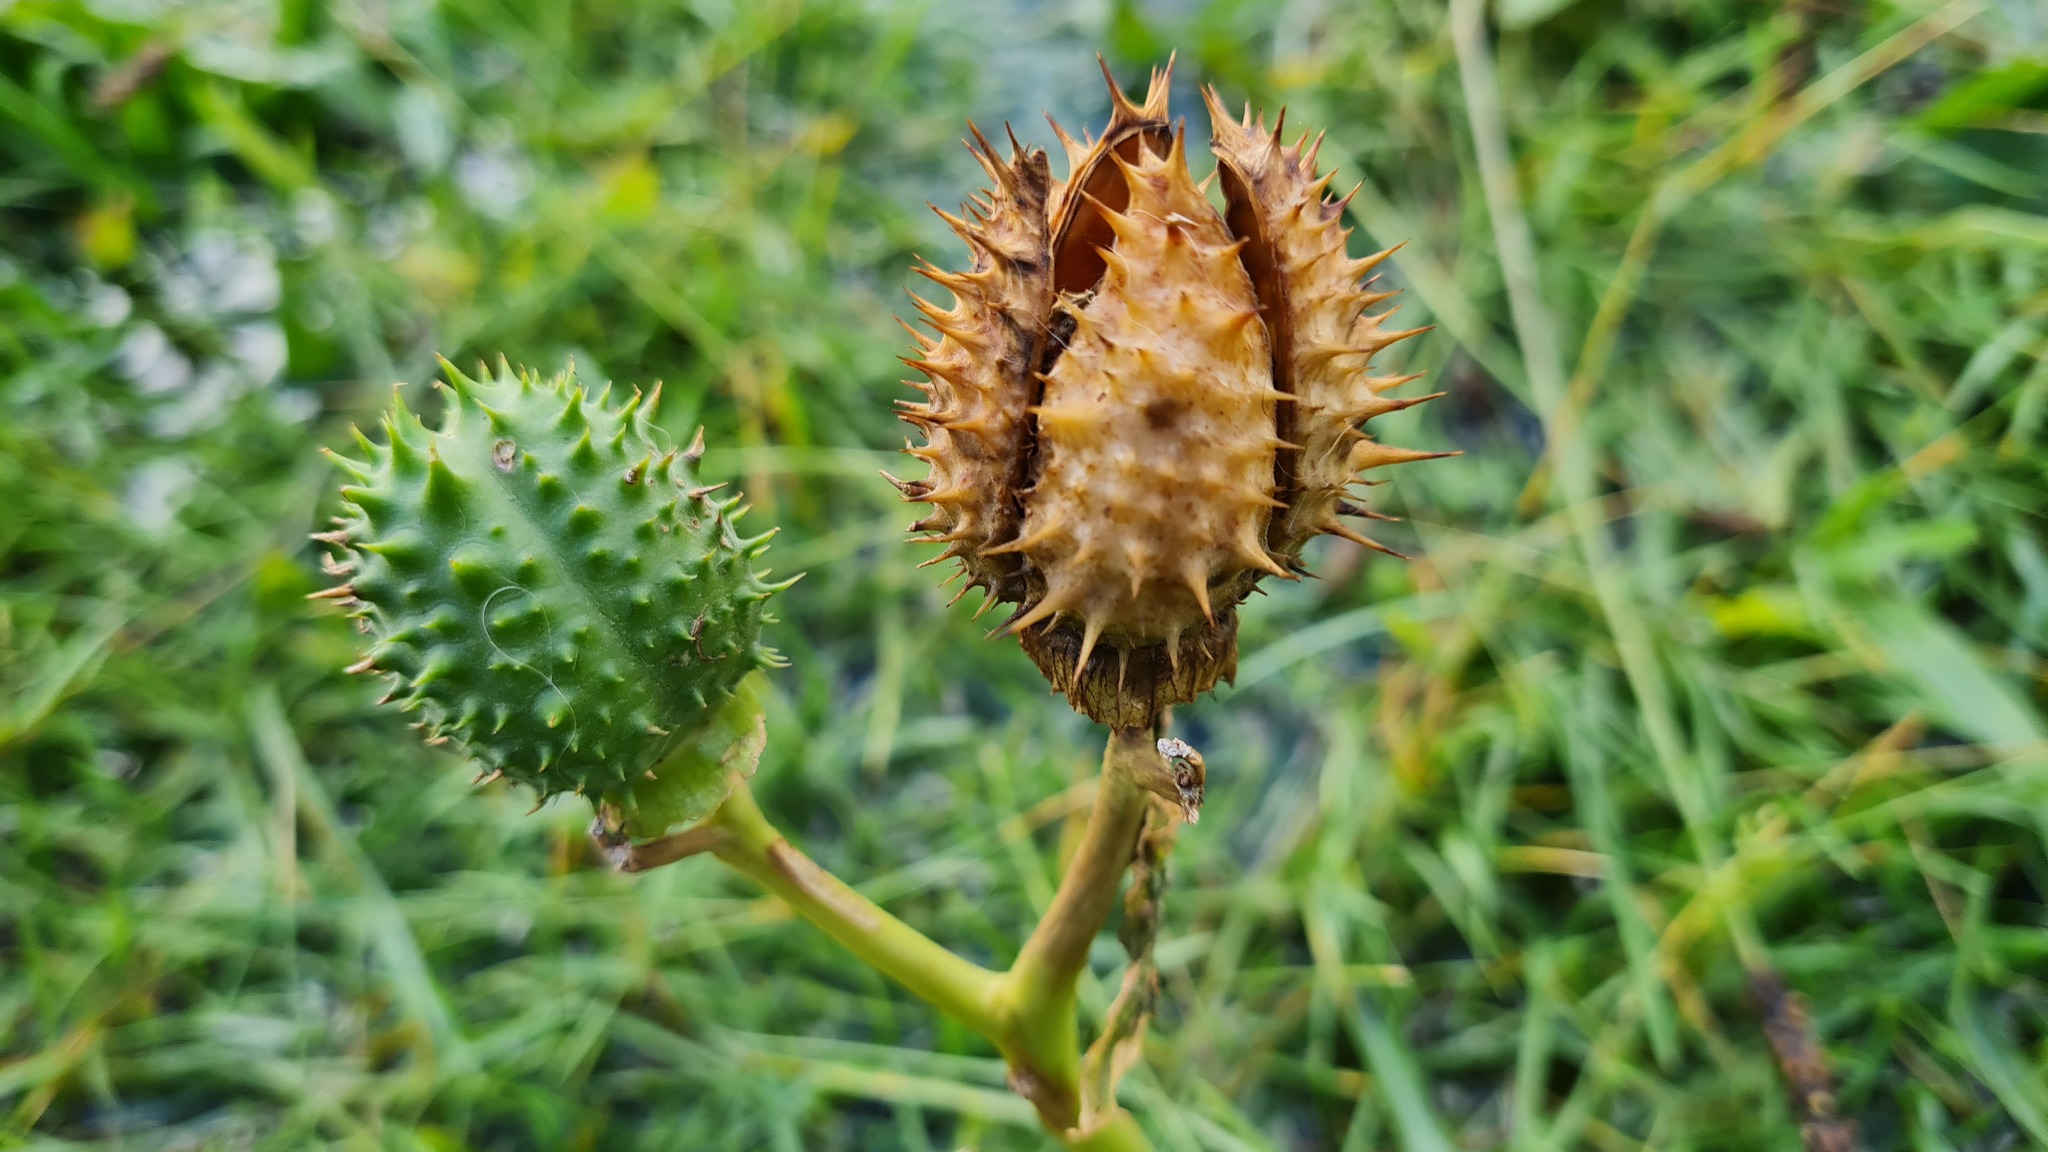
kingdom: Plantae
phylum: Tracheophyta
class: Magnoliopsida
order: Solanales
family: Solanaceae
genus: Datura
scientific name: Datura stramonium
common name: Thorn-apple
